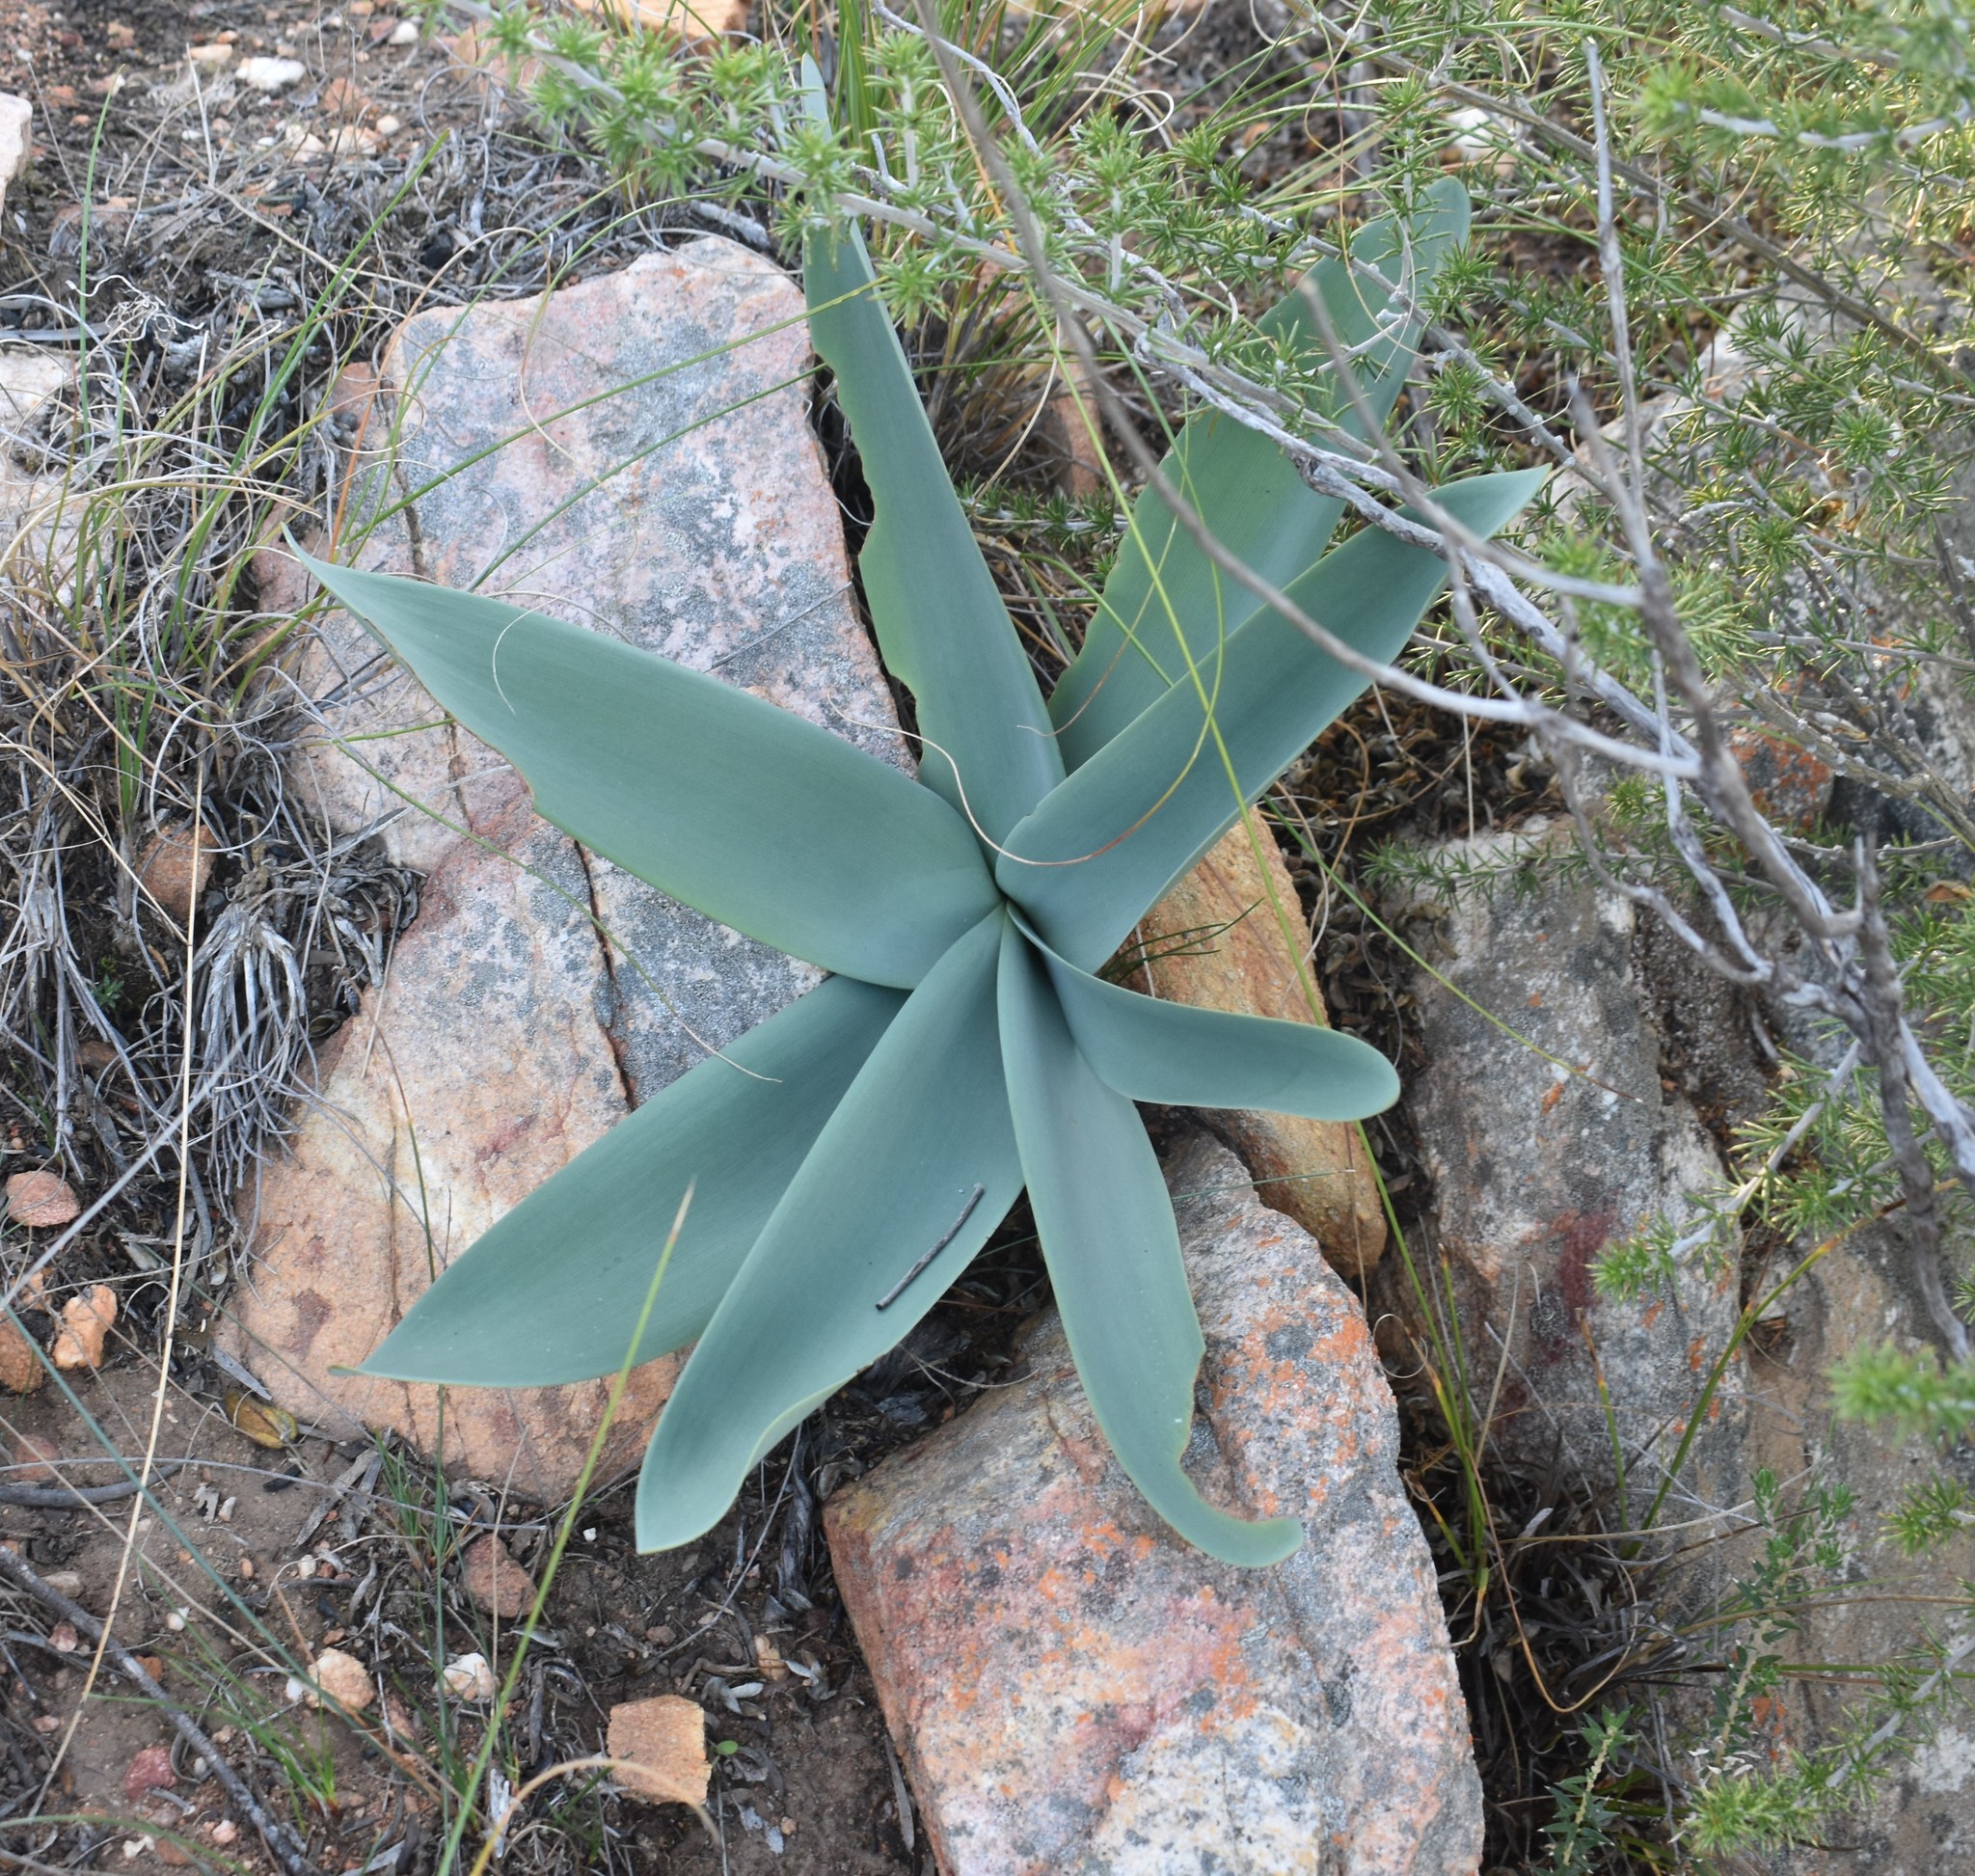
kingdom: Plantae
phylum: Tracheophyta
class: Liliopsida
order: Asparagales
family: Amaryllidaceae
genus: Brunsvigia
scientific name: Brunsvigia josephinae
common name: Josephine's-lily
